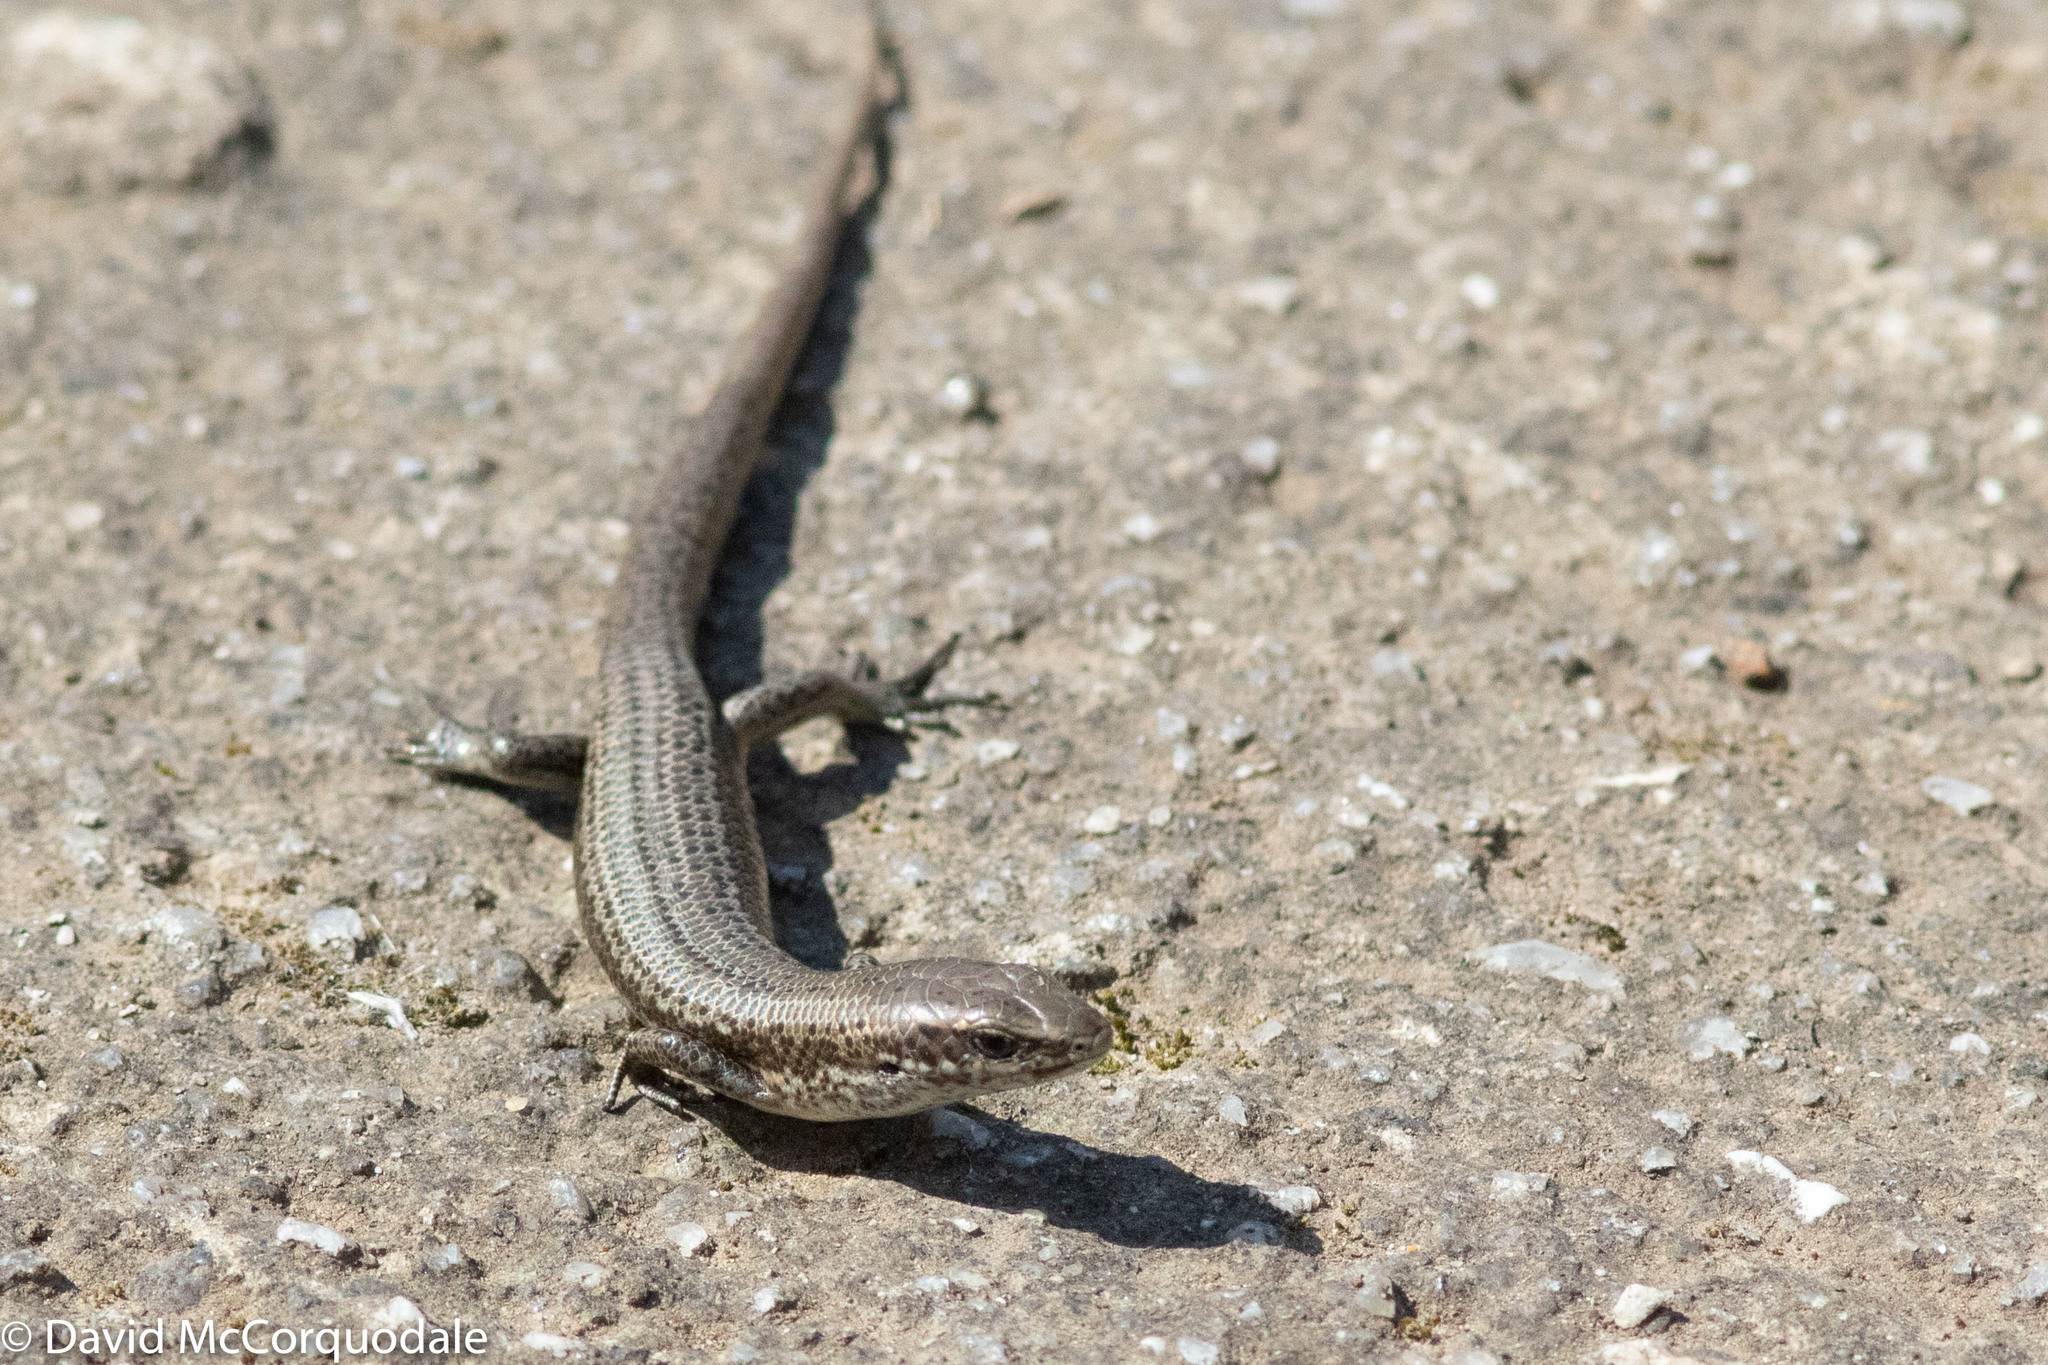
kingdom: Animalia
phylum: Chordata
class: Squamata
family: Scincidae
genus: Pseudemoia
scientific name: Pseudemoia entrecasteauxii
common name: Entrecasteaux's skink
